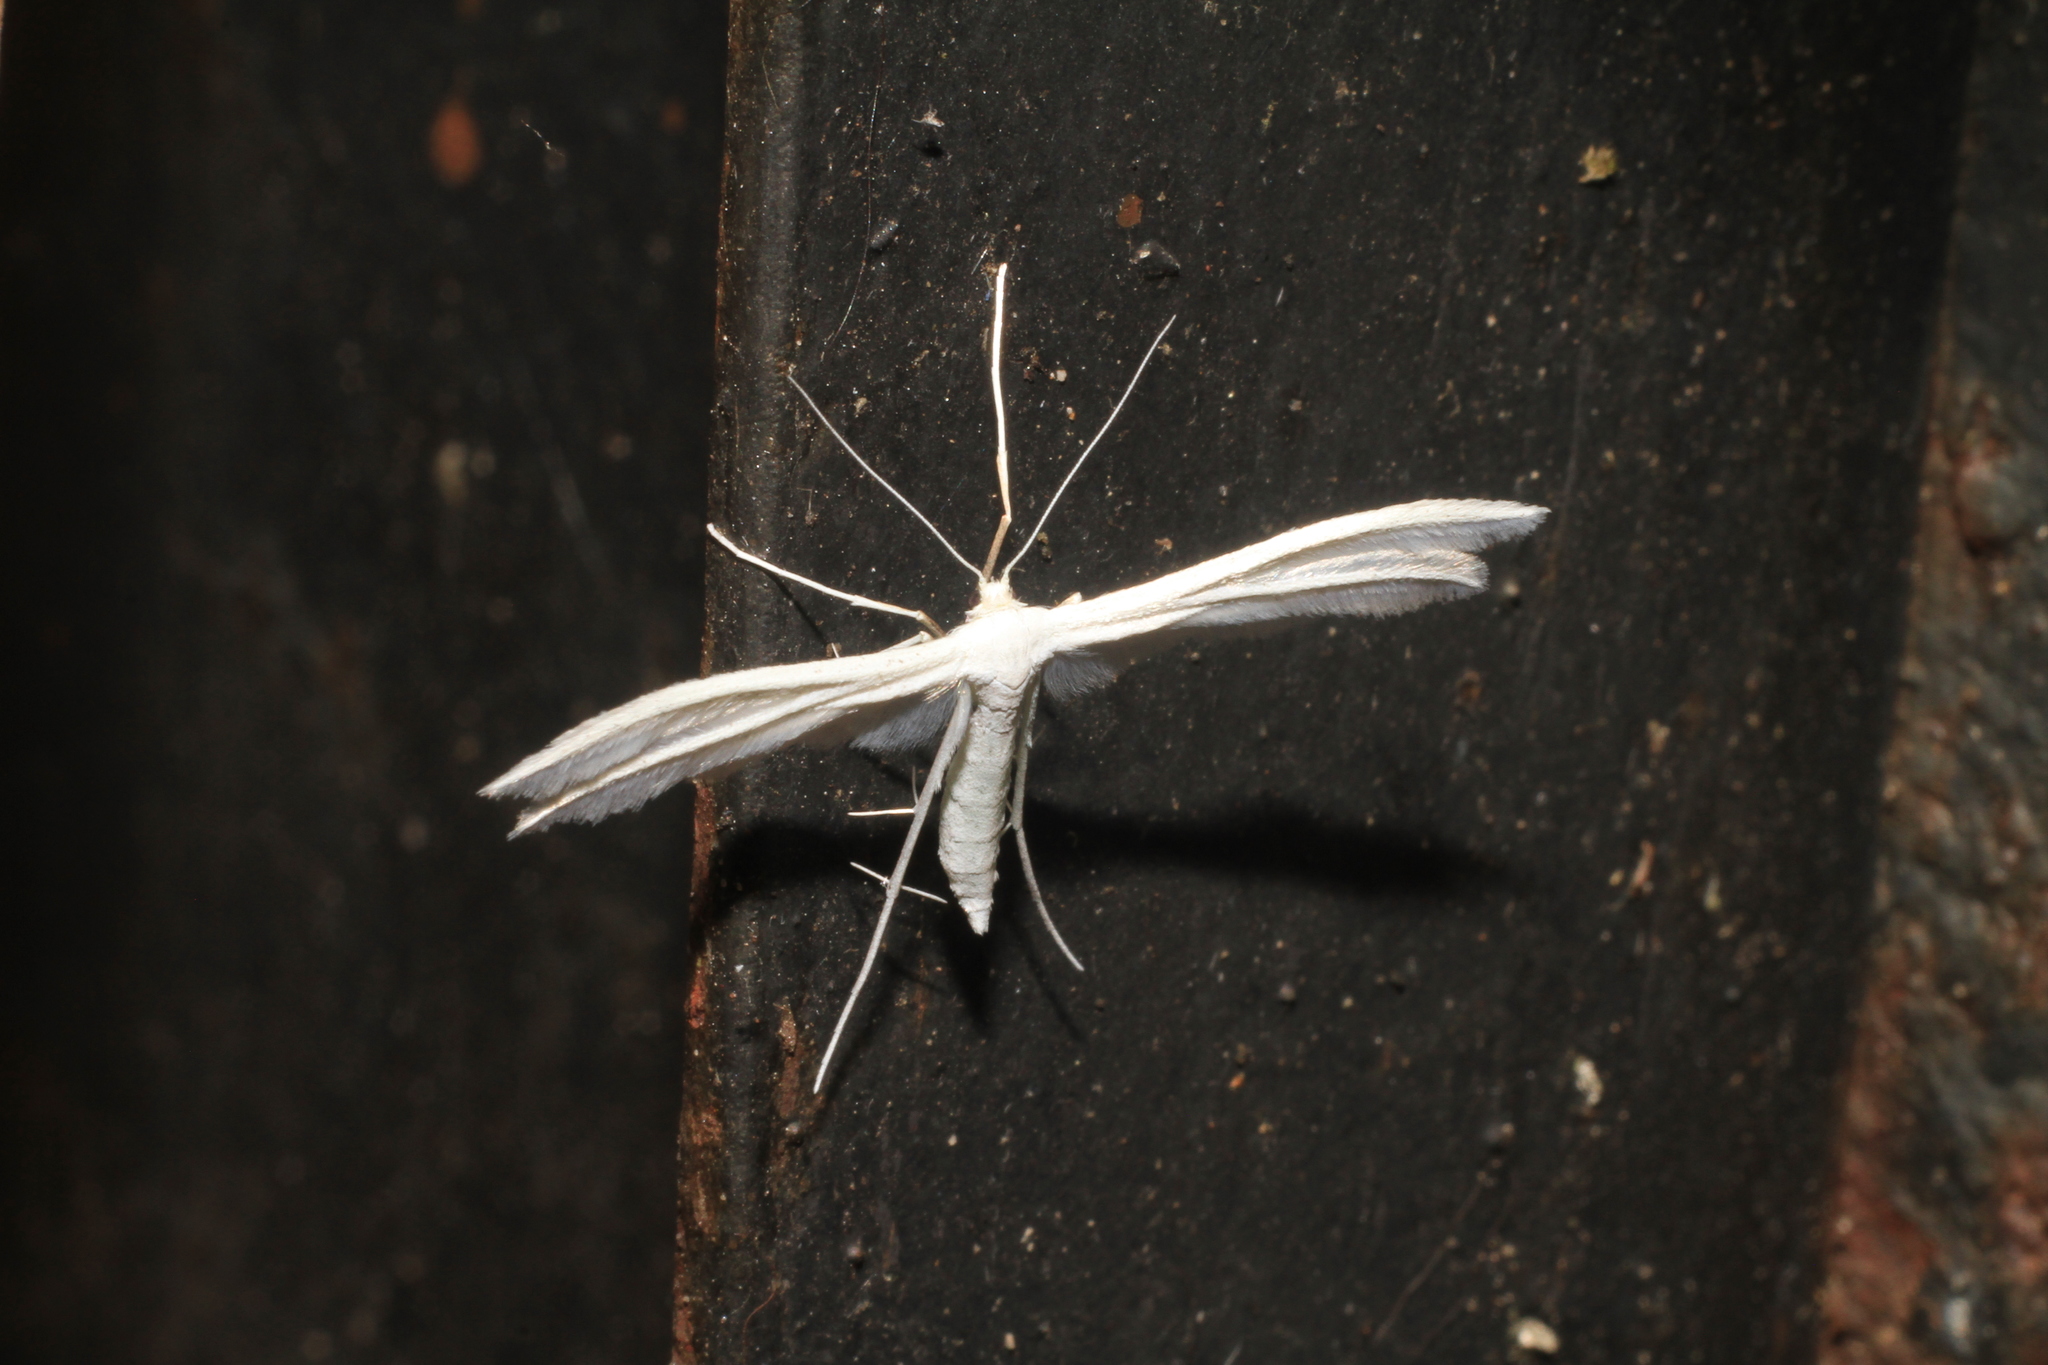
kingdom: Animalia
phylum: Arthropoda
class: Insecta
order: Lepidoptera
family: Pterophoridae
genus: Pterophorus
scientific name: Pterophorus pentadactyla
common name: White plume moth
